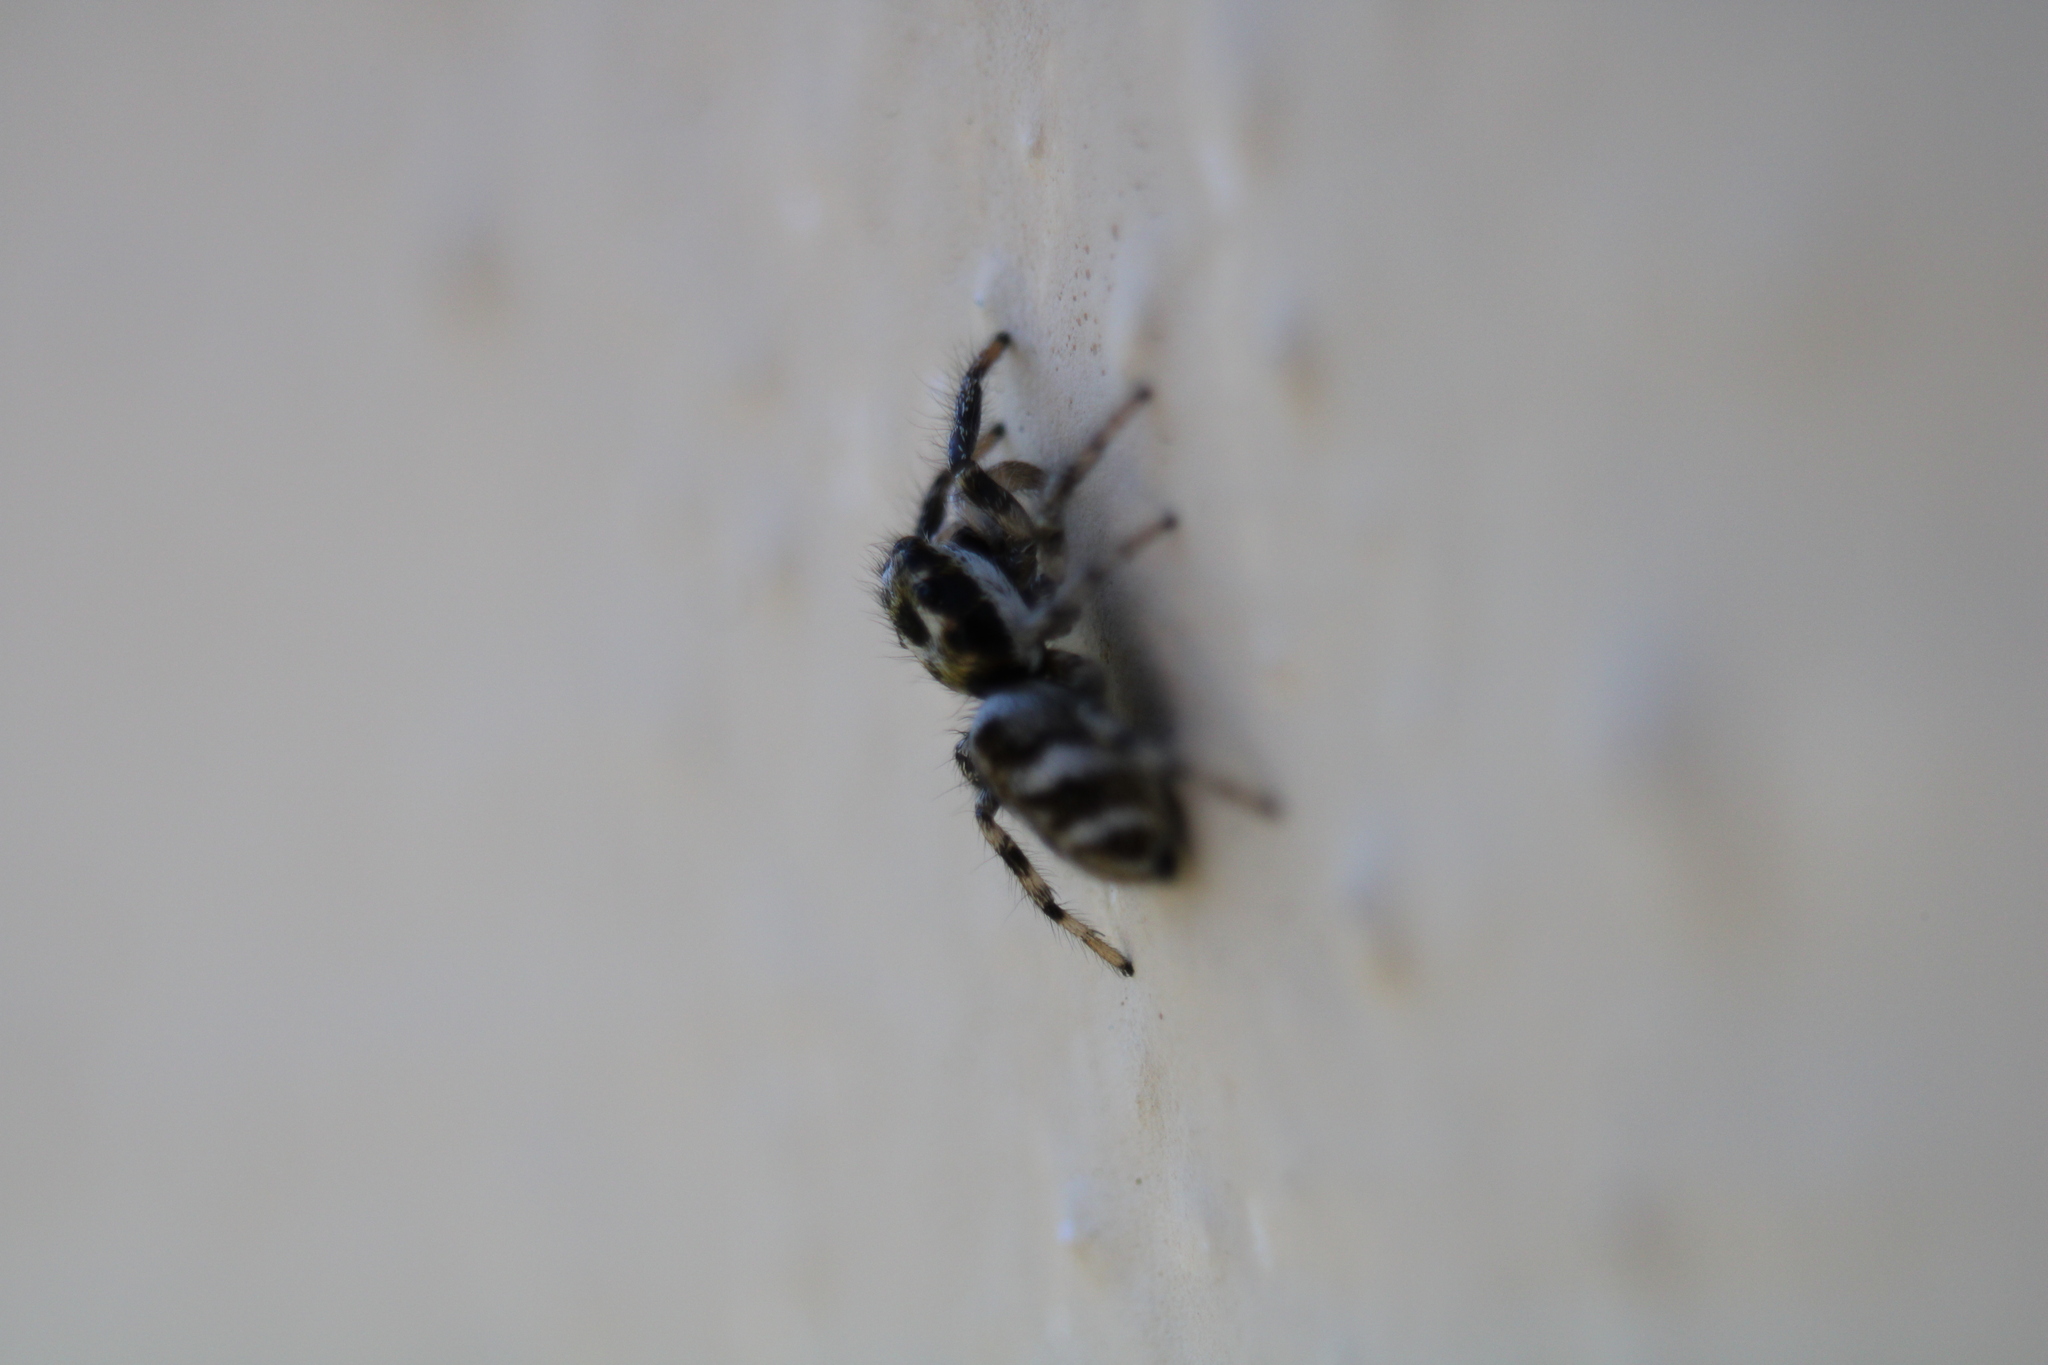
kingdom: Animalia
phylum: Arthropoda
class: Arachnida
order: Araneae
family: Salticidae
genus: Salticus
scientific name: Salticus scenicus
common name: Zebra jumper
